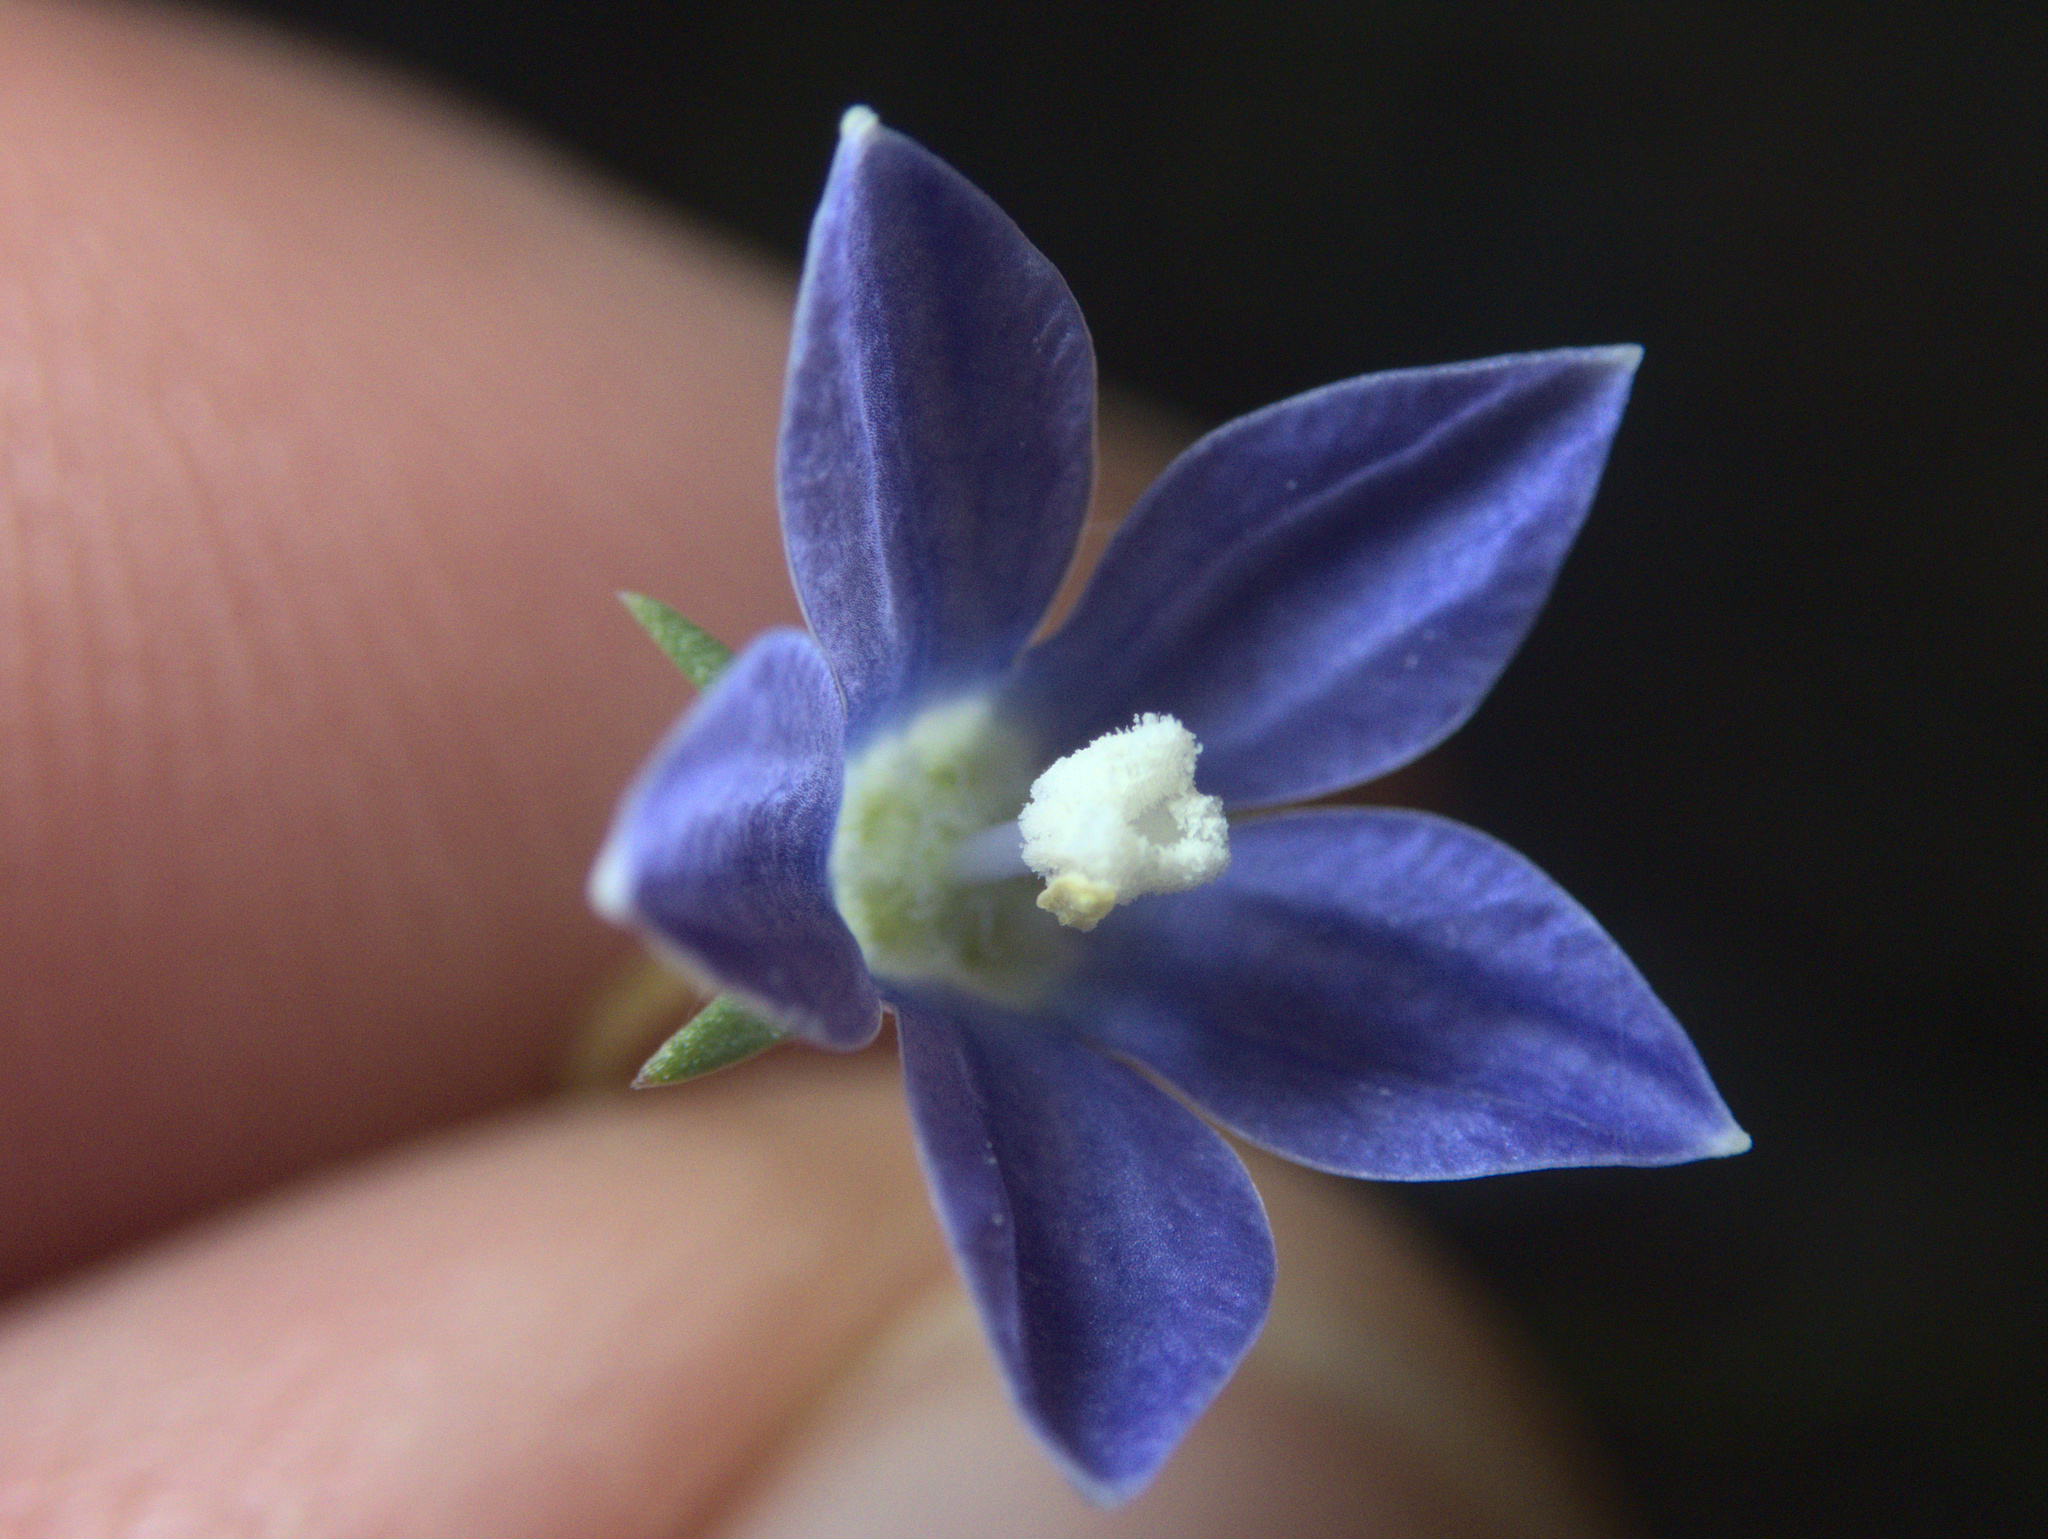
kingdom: Plantae
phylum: Tracheophyta
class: Magnoliopsida
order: Asterales
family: Campanulaceae
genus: Wahlenbergia
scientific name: Wahlenbergia violacea
